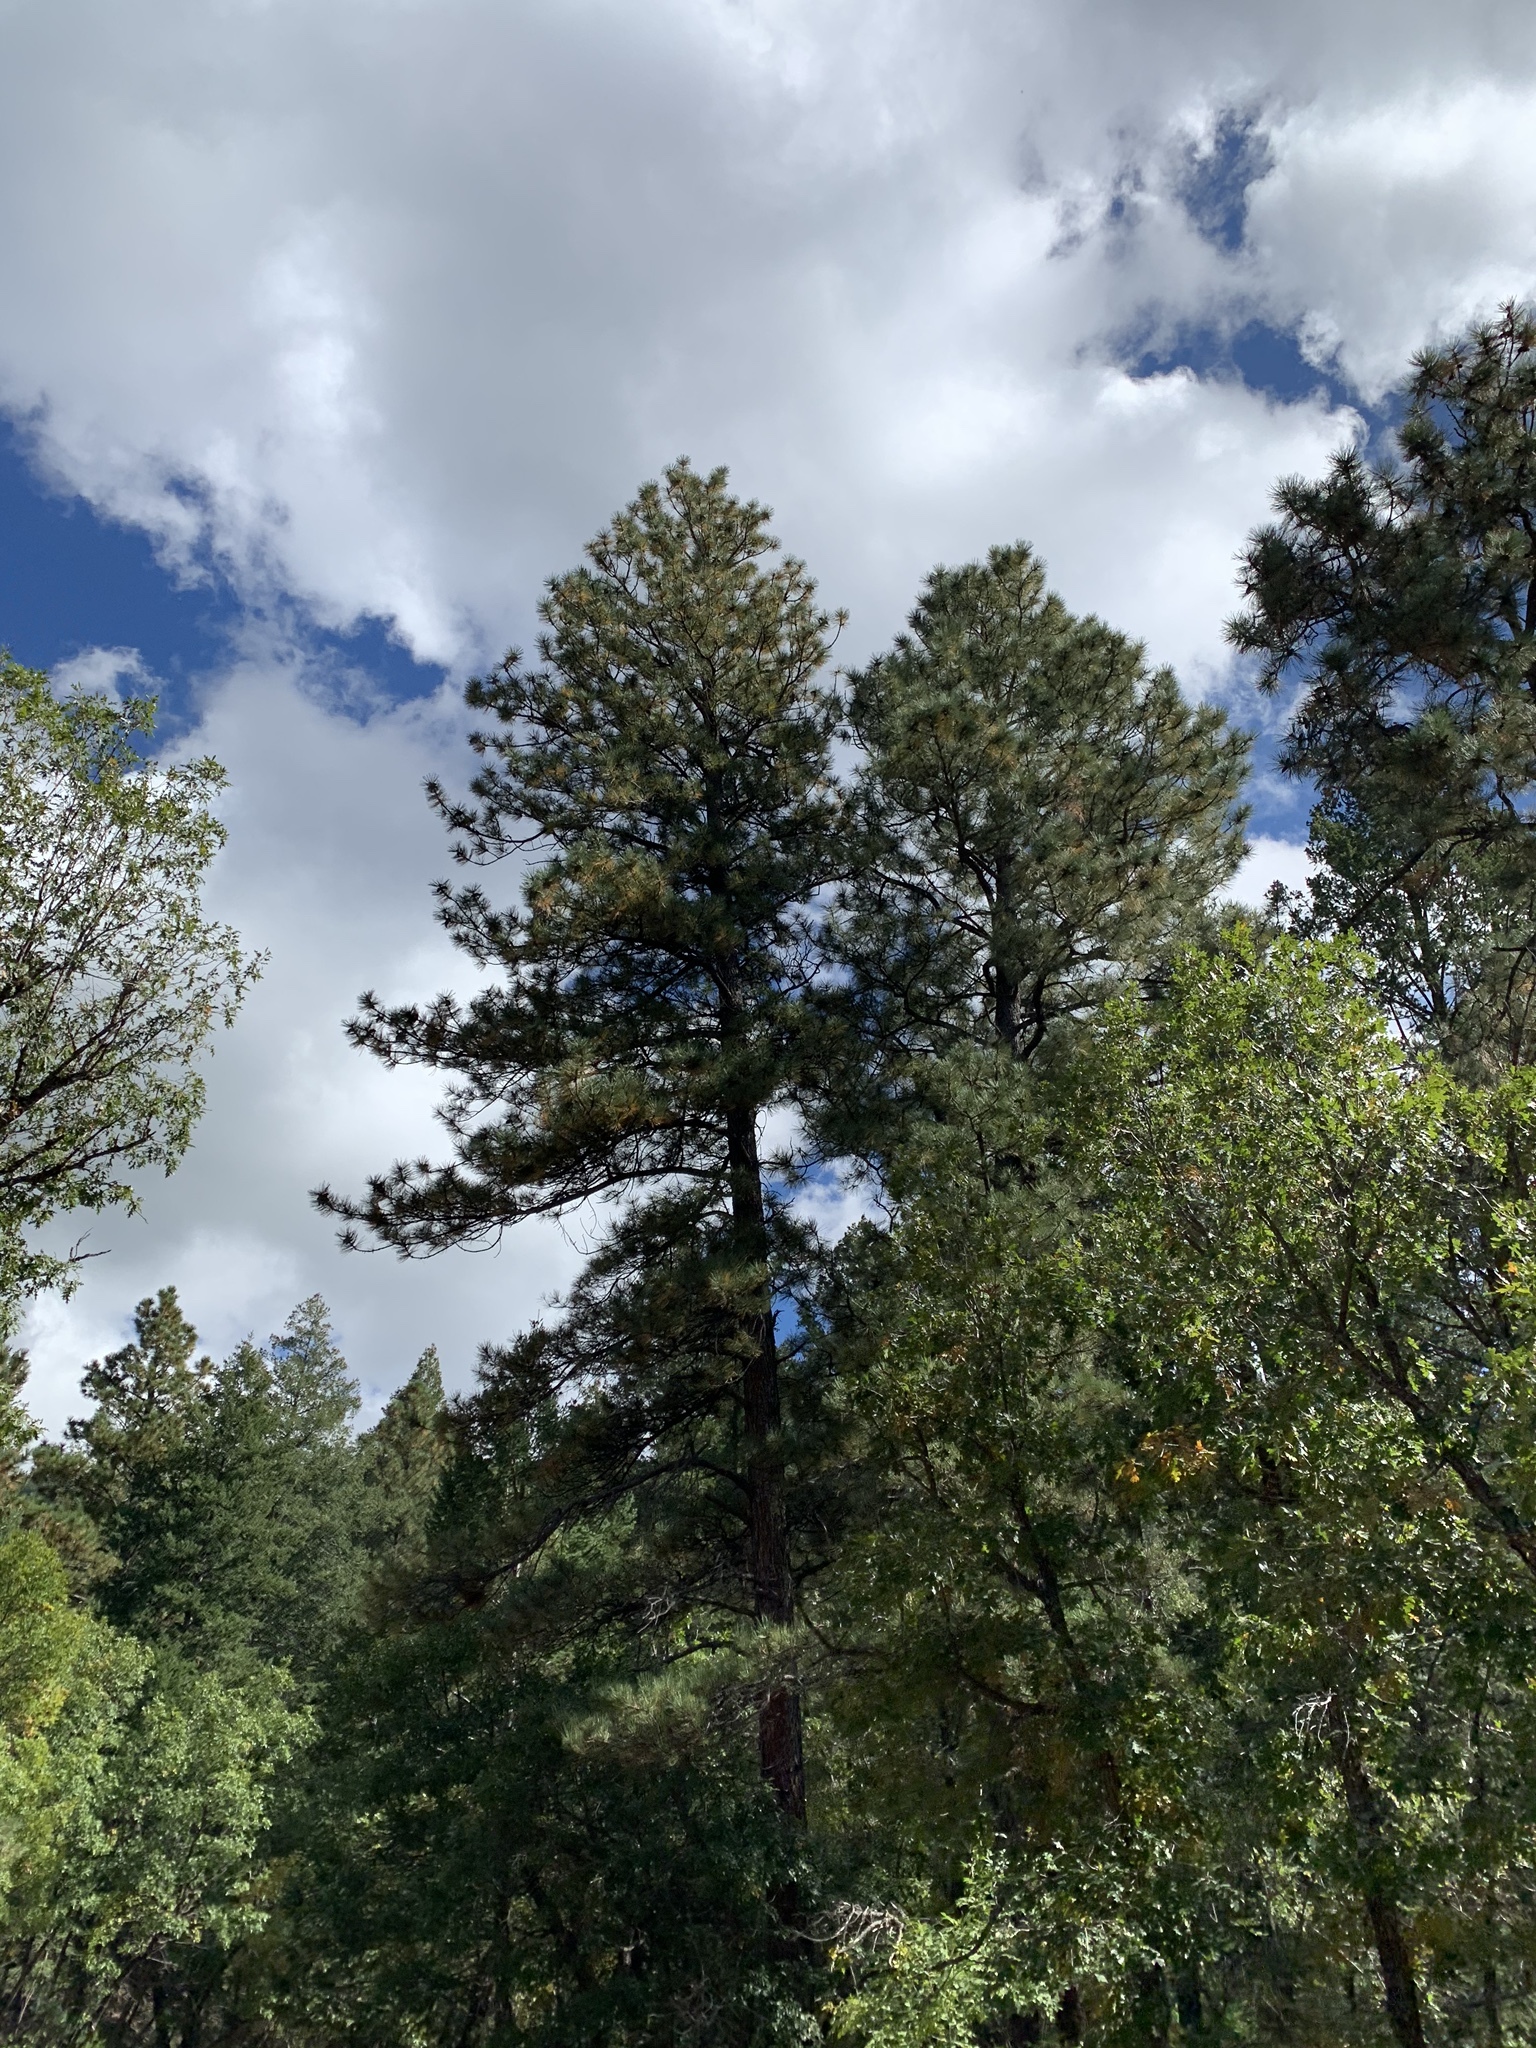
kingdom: Plantae
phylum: Tracheophyta
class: Pinopsida
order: Pinales
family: Pinaceae
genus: Pinus
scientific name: Pinus ponderosa
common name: Western yellow-pine
